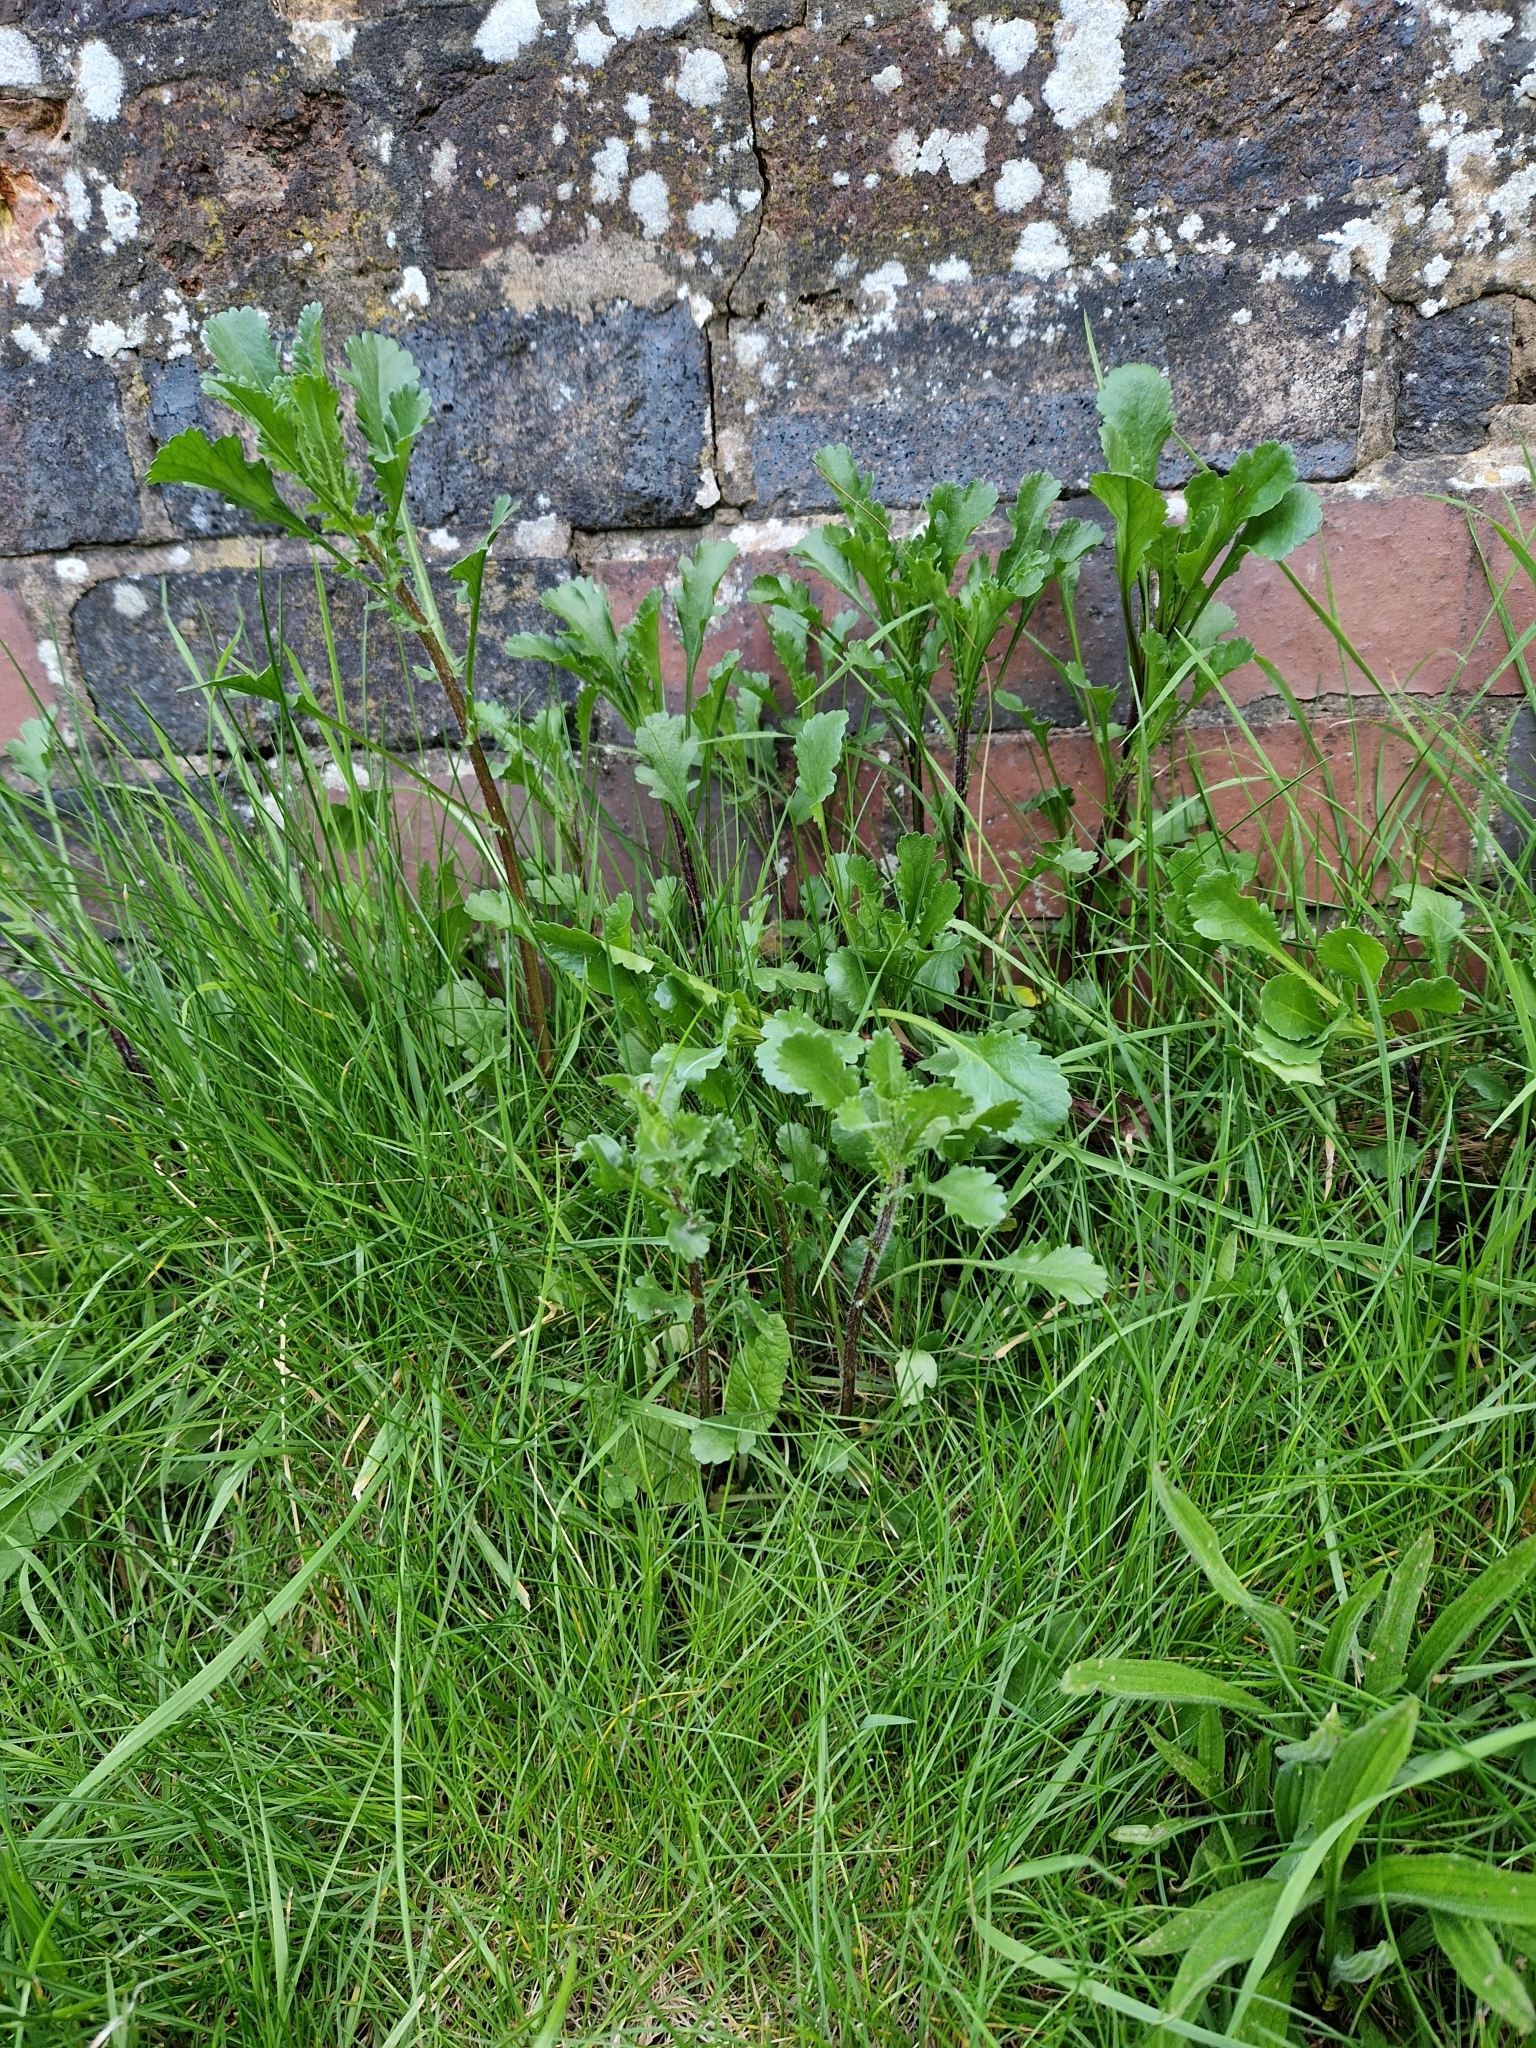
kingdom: Plantae
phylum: Tracheophyta
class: Magnoliopsida
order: Asterales
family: Asteraceae
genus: Leucanthemum
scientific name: Leucanthemum vulgare
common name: Oxeye daisy
